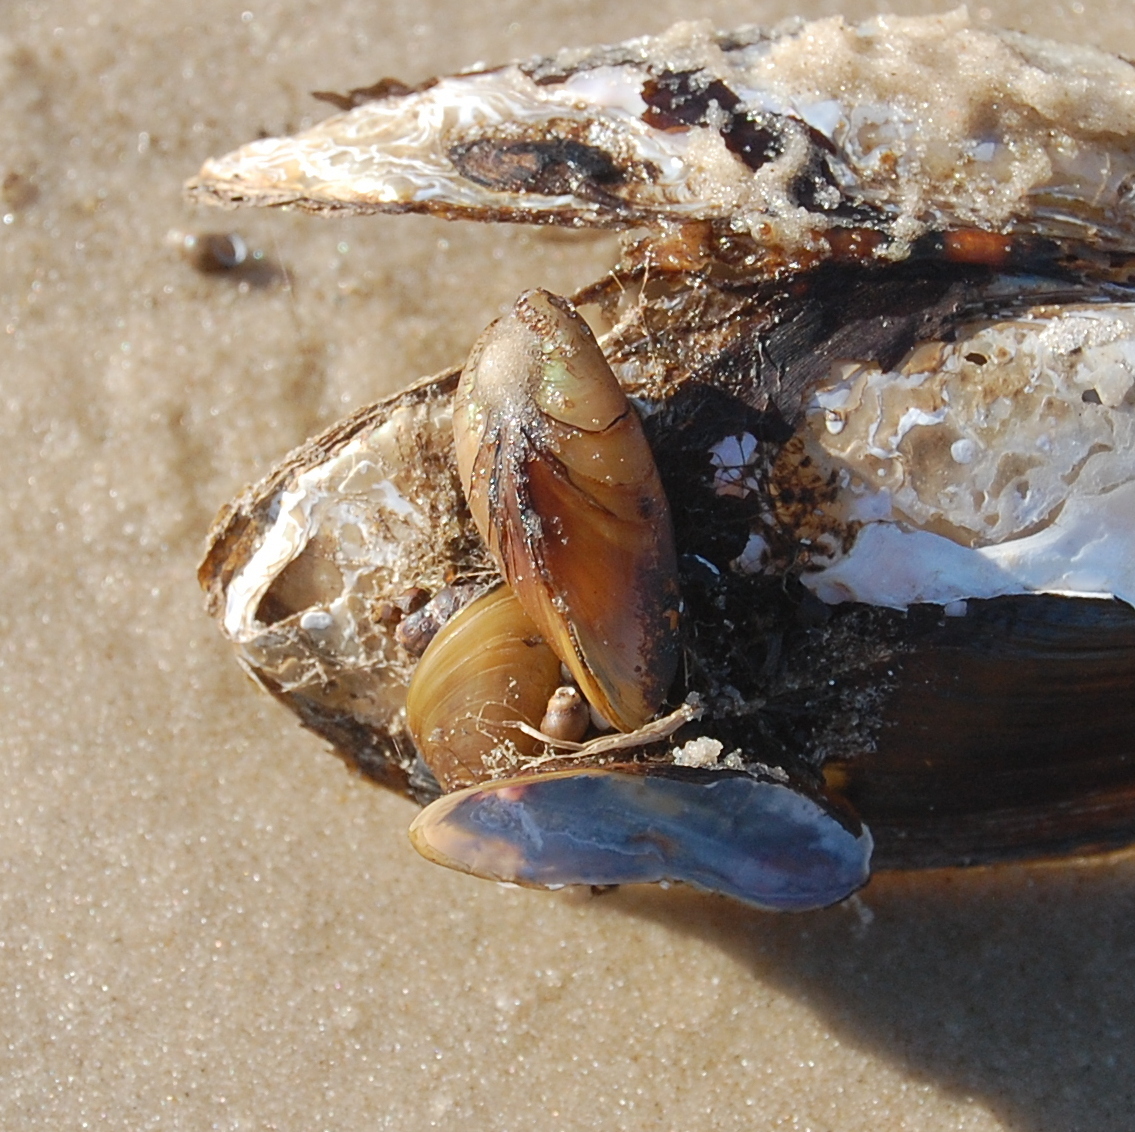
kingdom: Animalia
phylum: Mollusca
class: Bivalvia
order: Mytilida
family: Mytilidae
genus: Limnoperna
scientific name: Limnoperna fortunei
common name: Golden mussel
